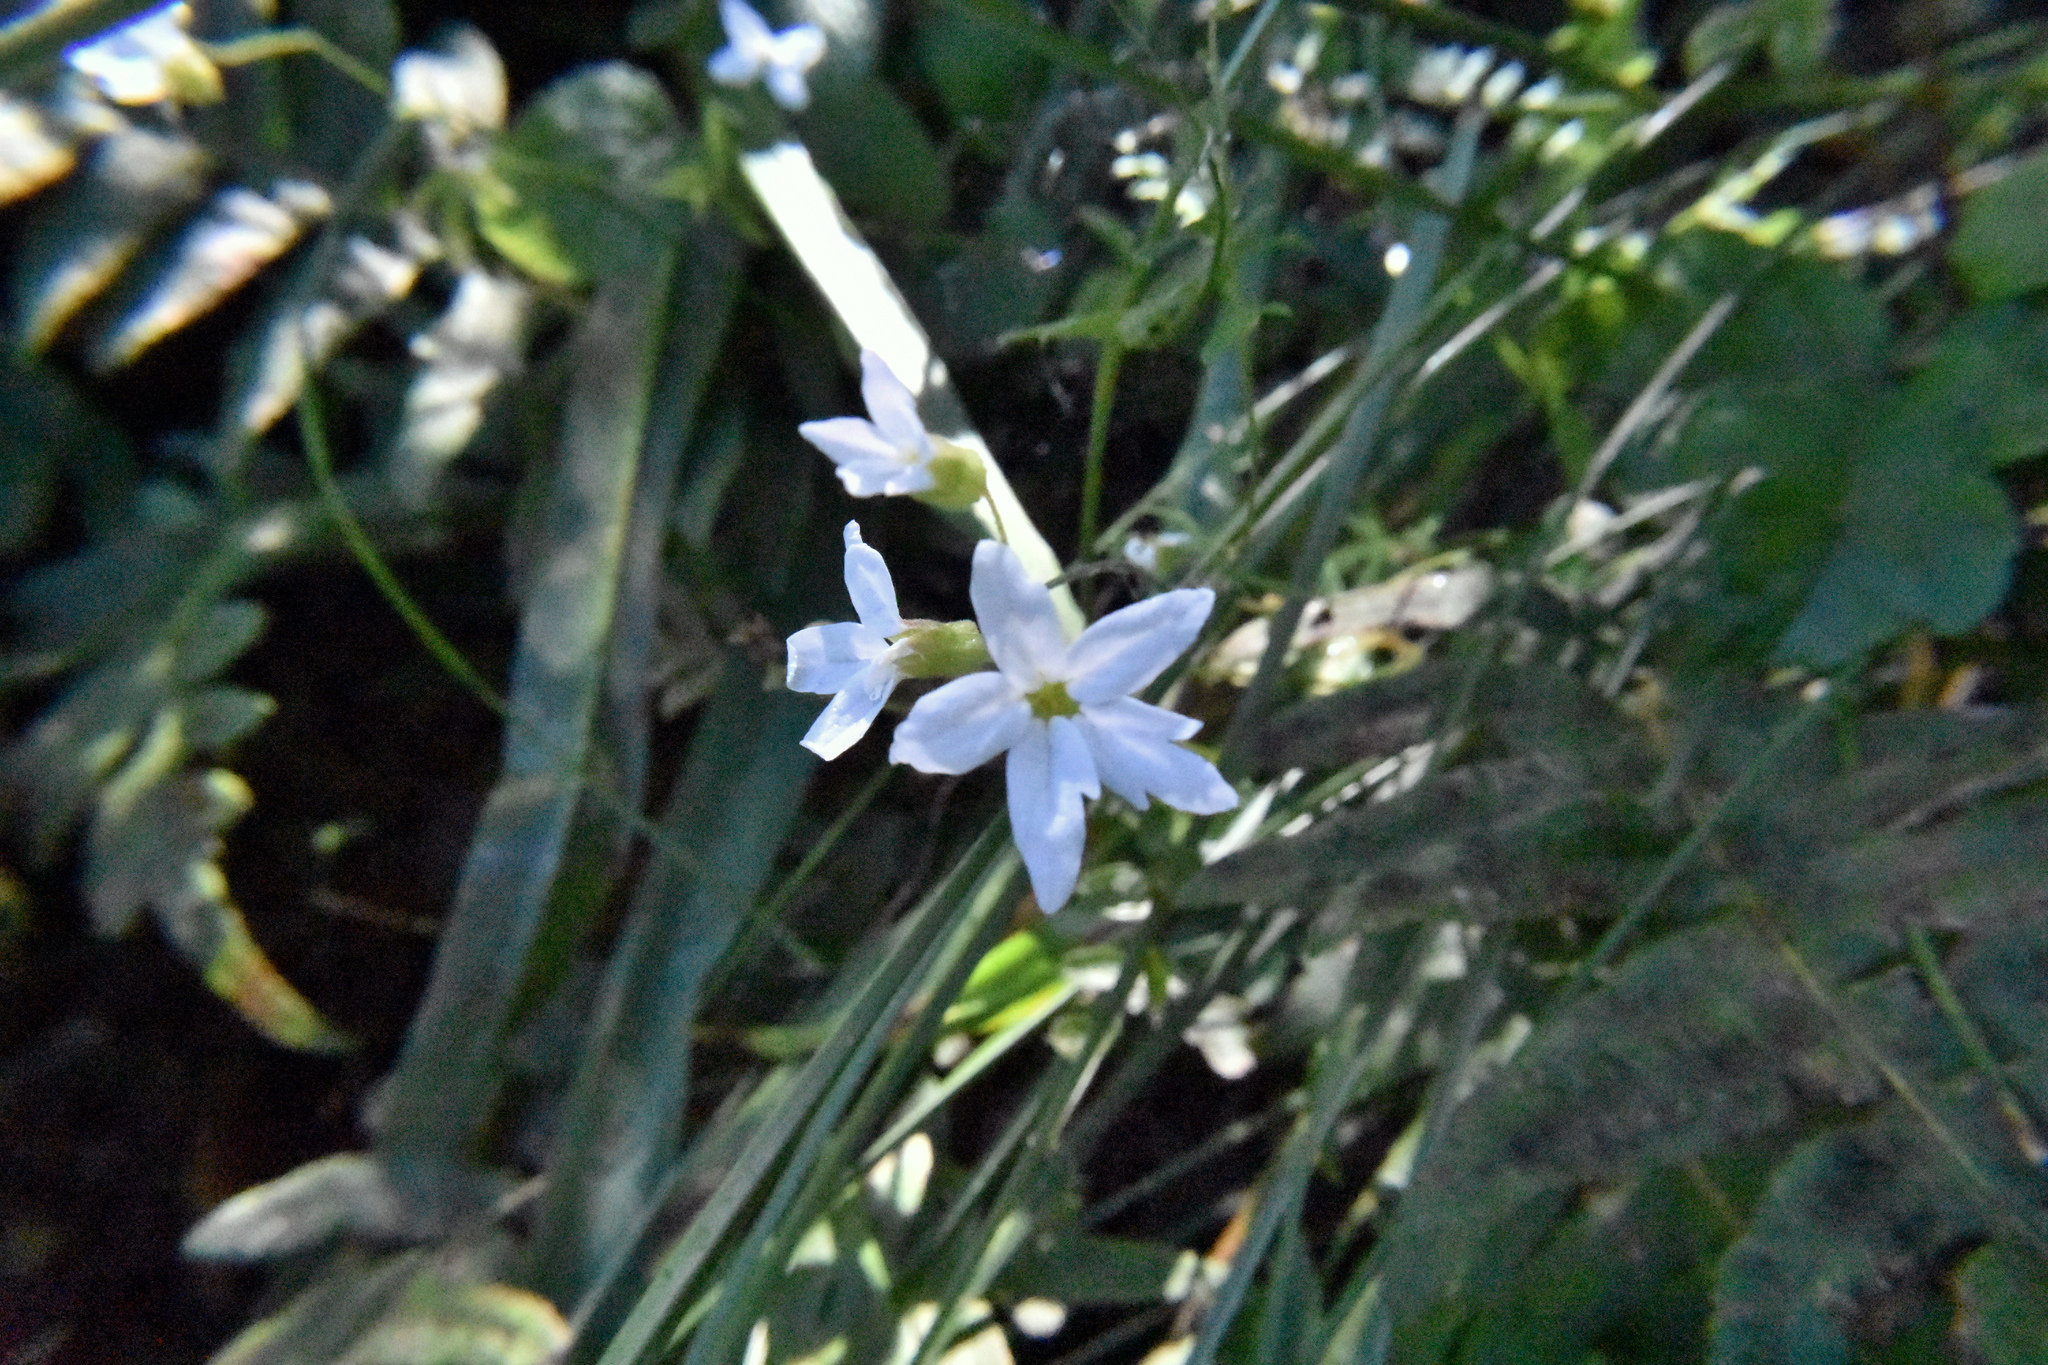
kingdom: Plantae
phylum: Tracheophyta
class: Magnoliopsida
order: Saxifragales
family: Saxifragaceae
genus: Lithophragma
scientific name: Lithophragma heterophyllum
